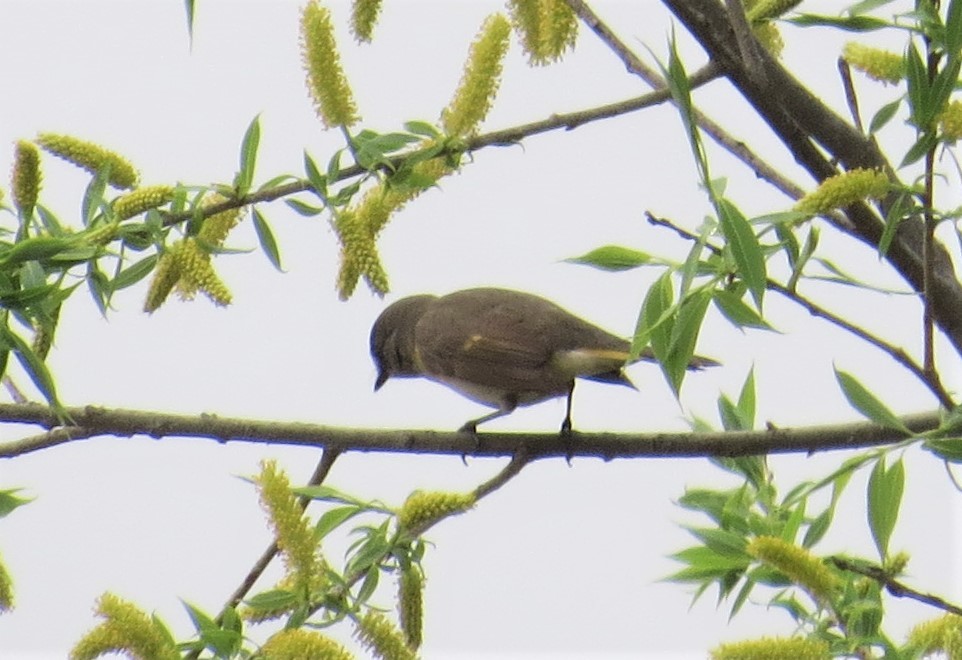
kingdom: Animalia
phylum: Chordata
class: Aves
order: Passeriformes
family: Parulidae
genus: Setophaga
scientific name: Setophaga ruticilla
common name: American redstart
